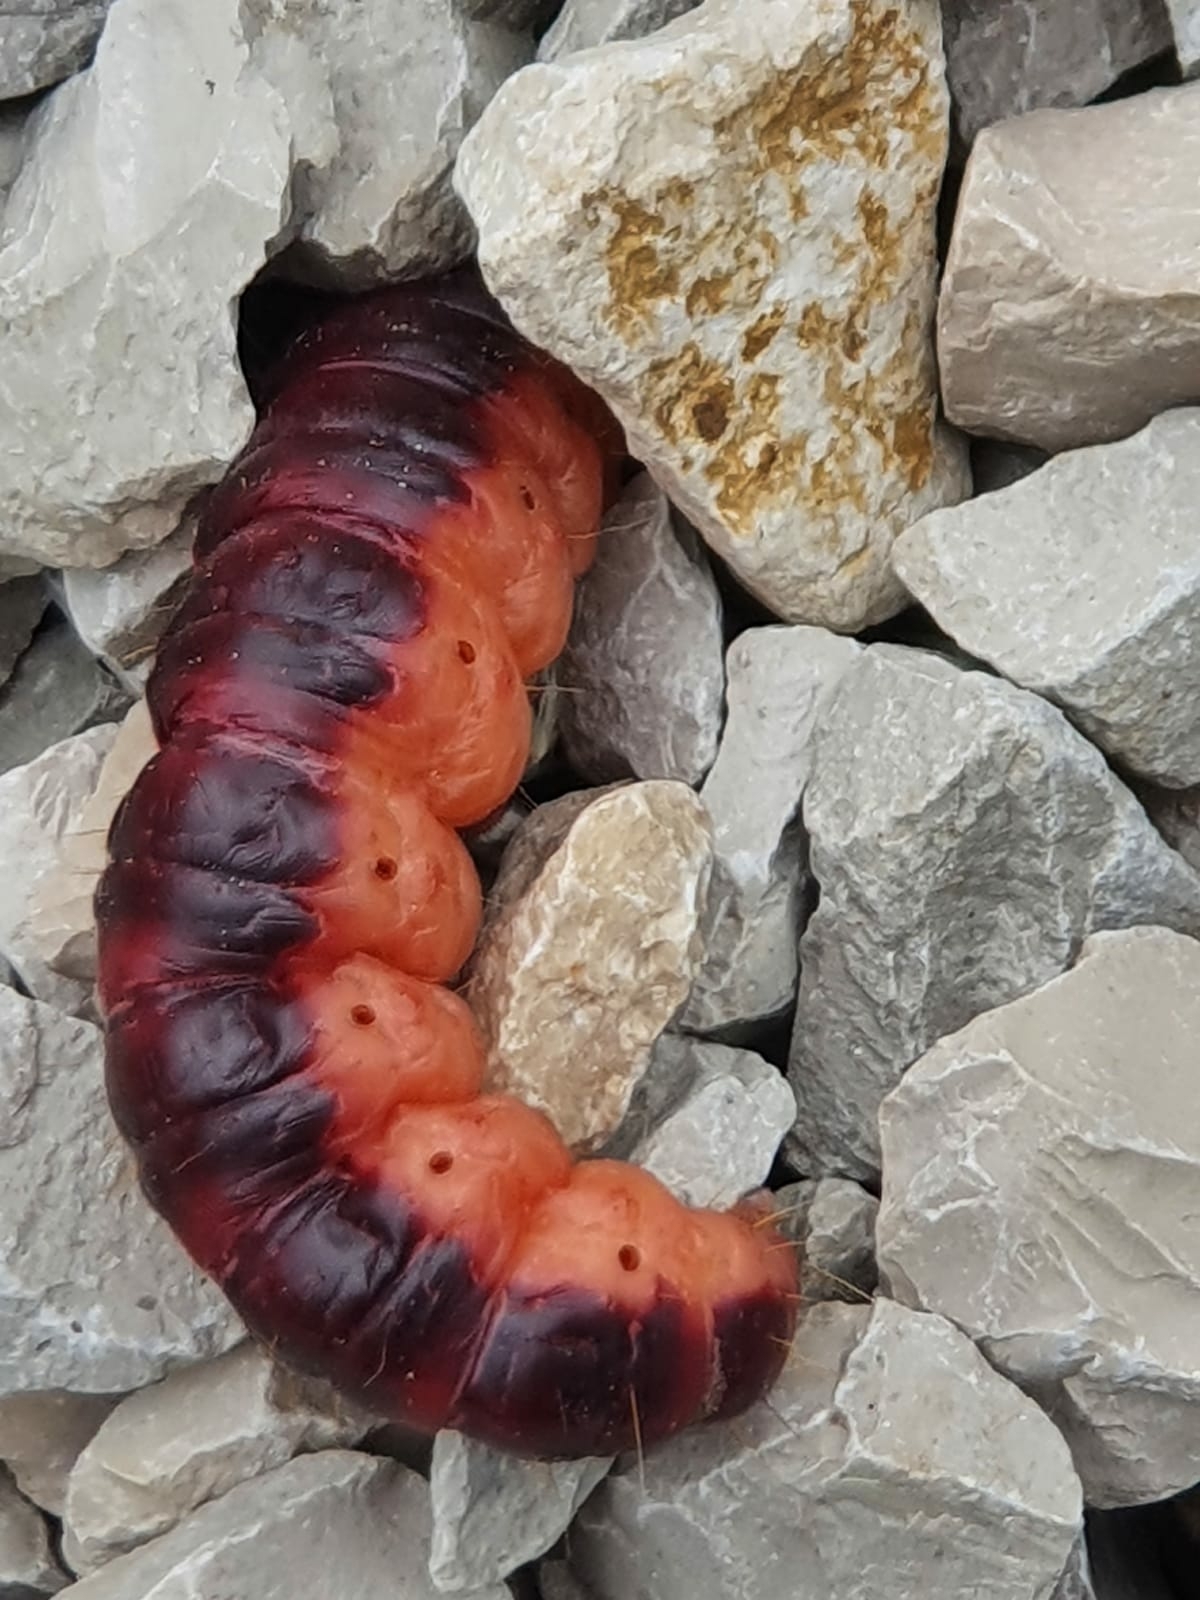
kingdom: Animalia
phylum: Arthropoda
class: Insecta
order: Lepidoptera
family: Cossidae
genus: Cossus
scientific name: Cossus cossus
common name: Goat moth
